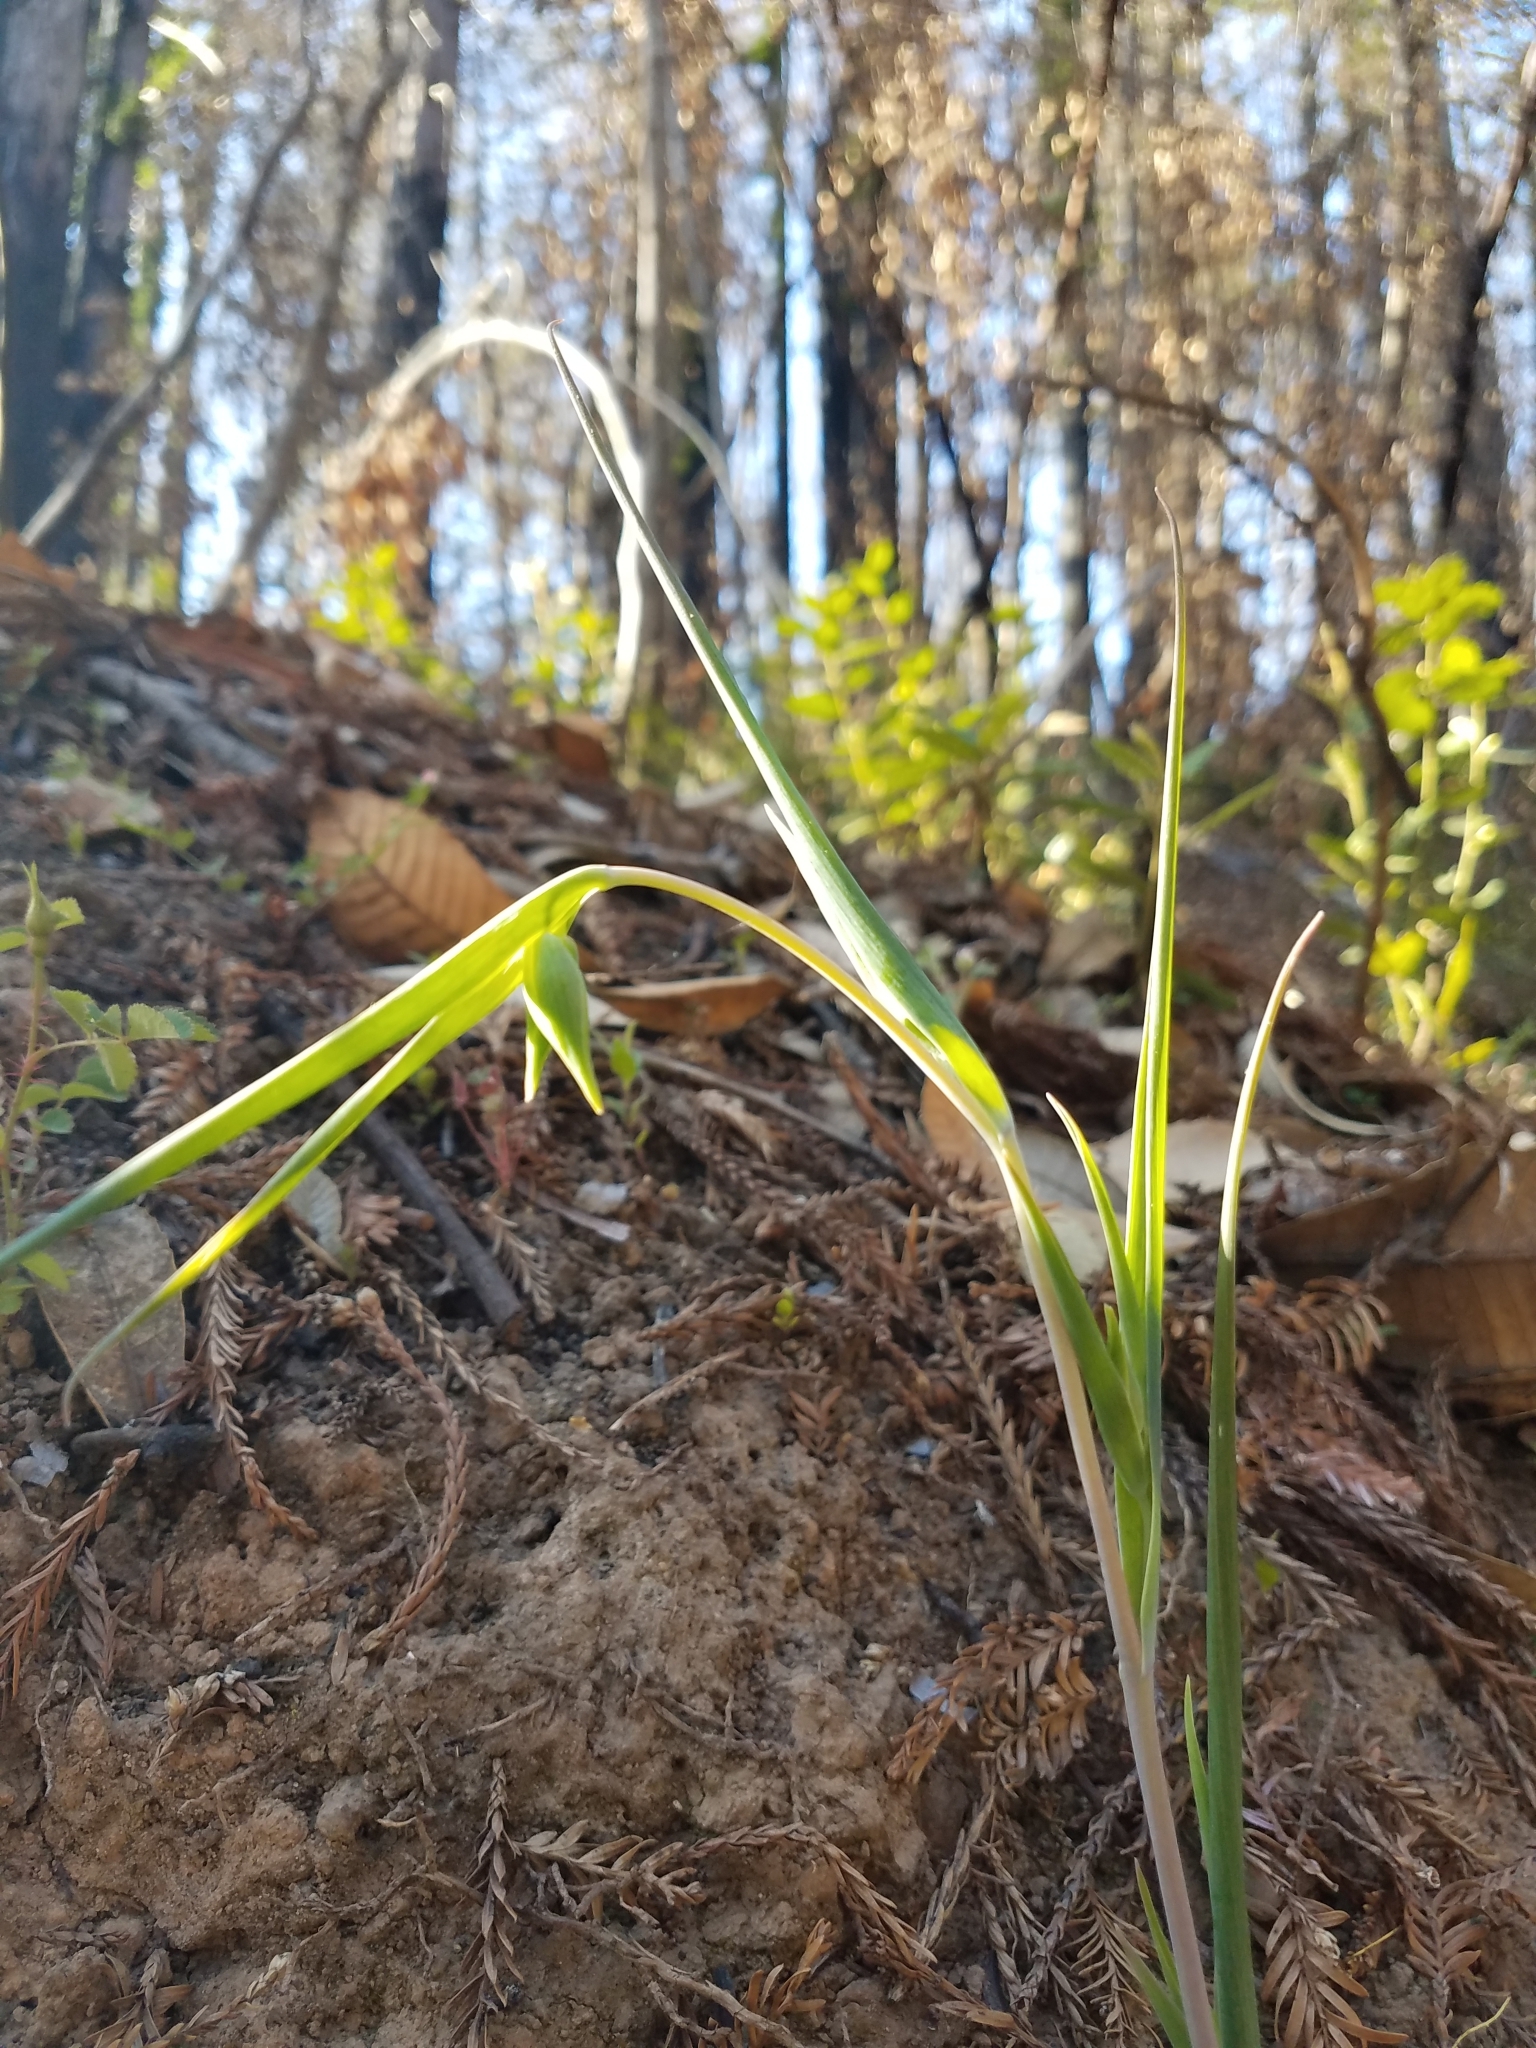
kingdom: Plantae
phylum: Tracheophyta
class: Liliopsida
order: Liliales
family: Liliaceae
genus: Calochortus
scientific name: Calochortus albus
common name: Fairy-lantern
